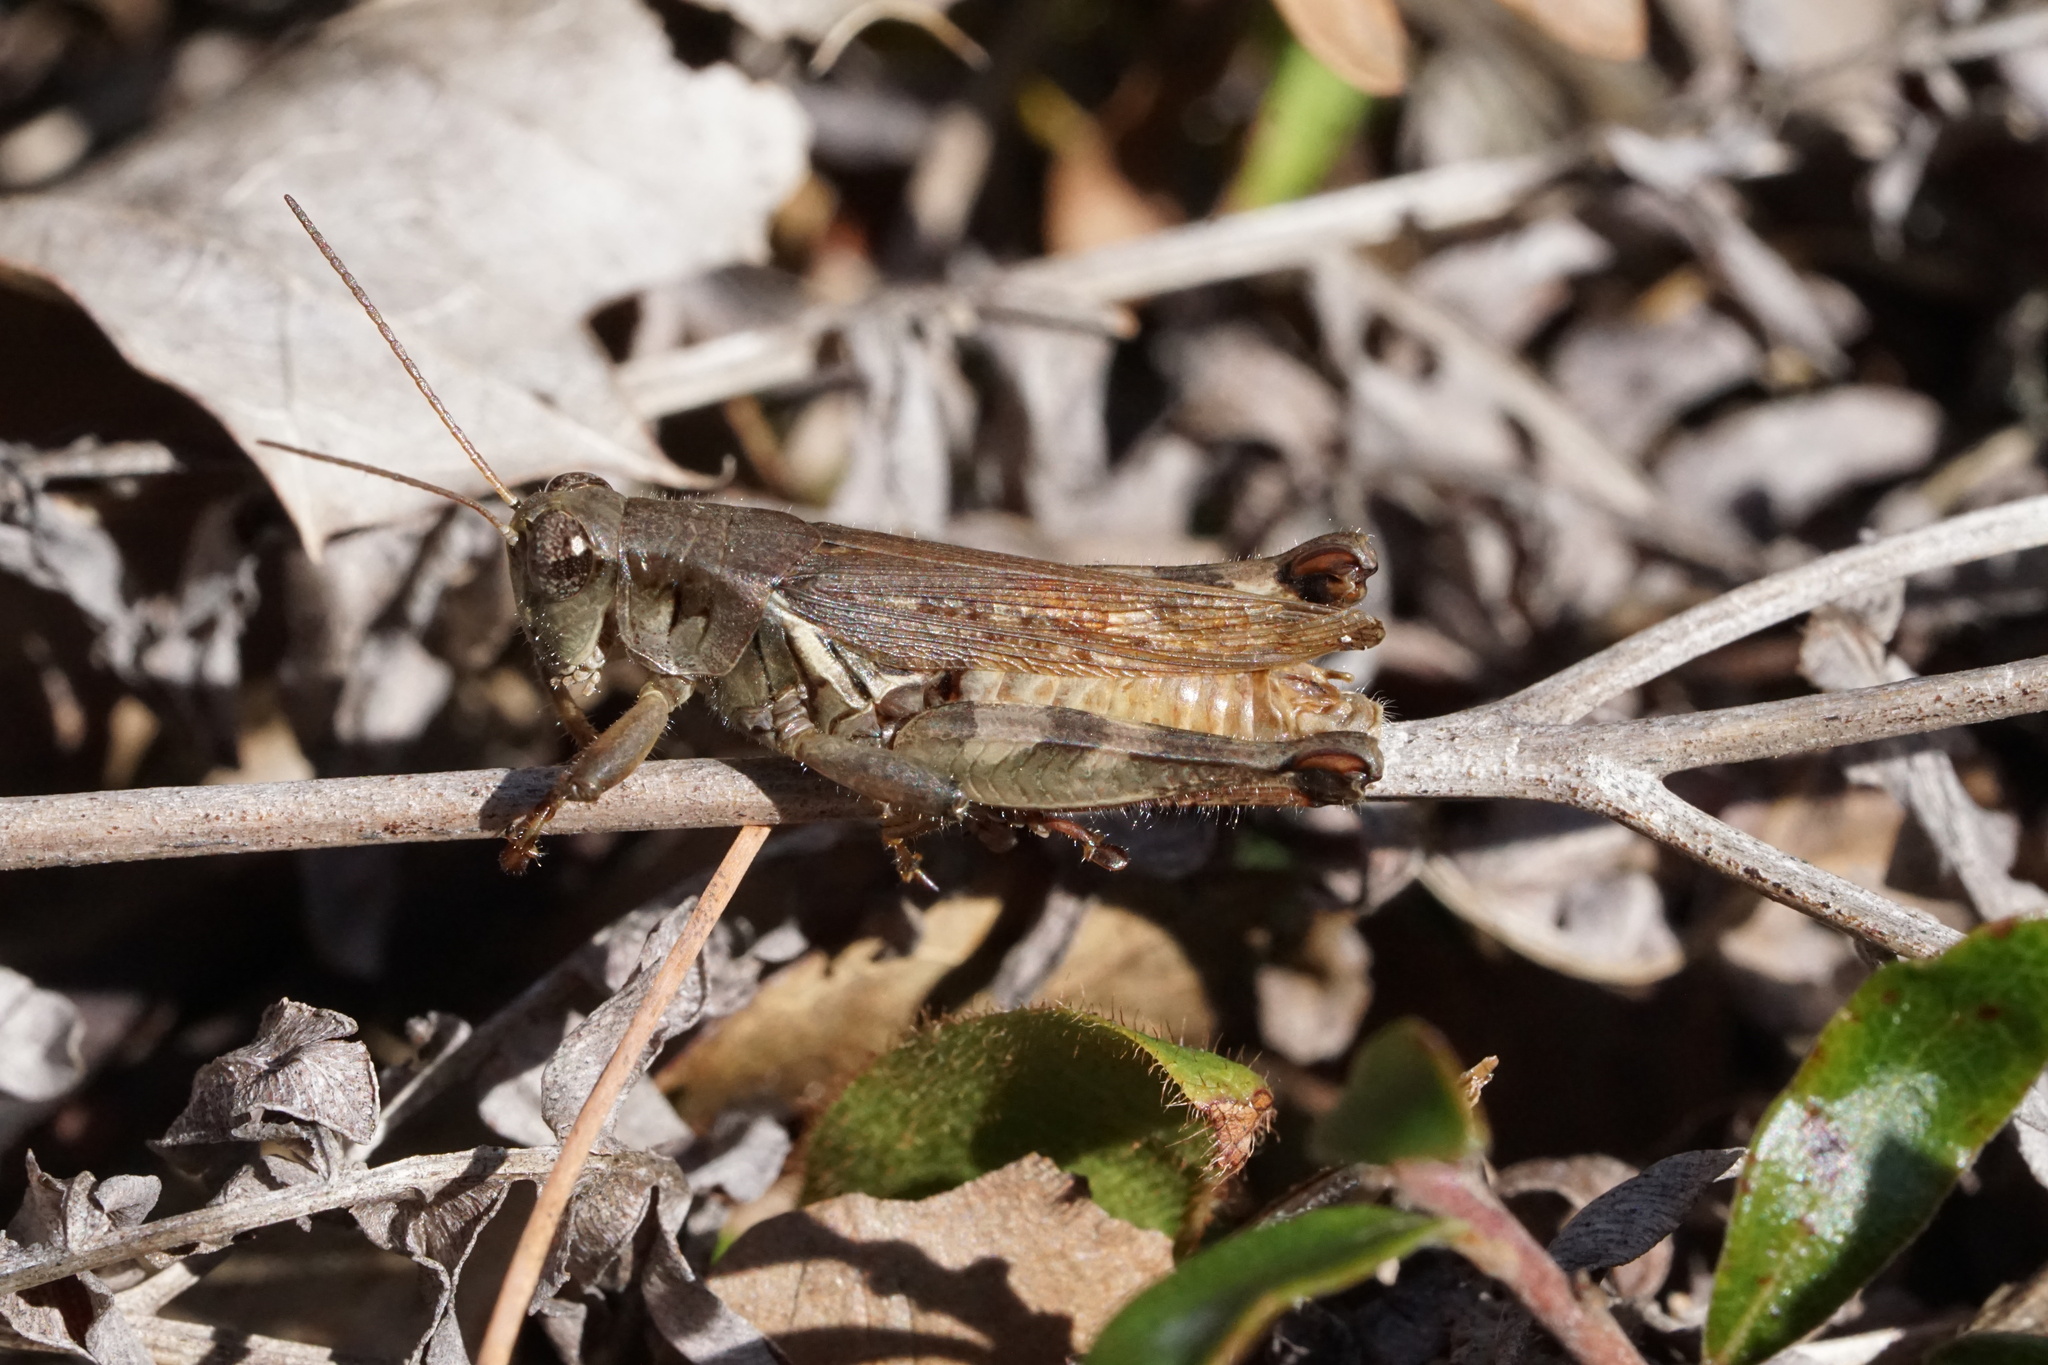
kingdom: Animalia
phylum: Arthropoda
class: Insecta
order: Orthoptera
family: Acrididae
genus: Melanoplus
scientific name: Melanoplus keeleri
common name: Keeler grasshopper
